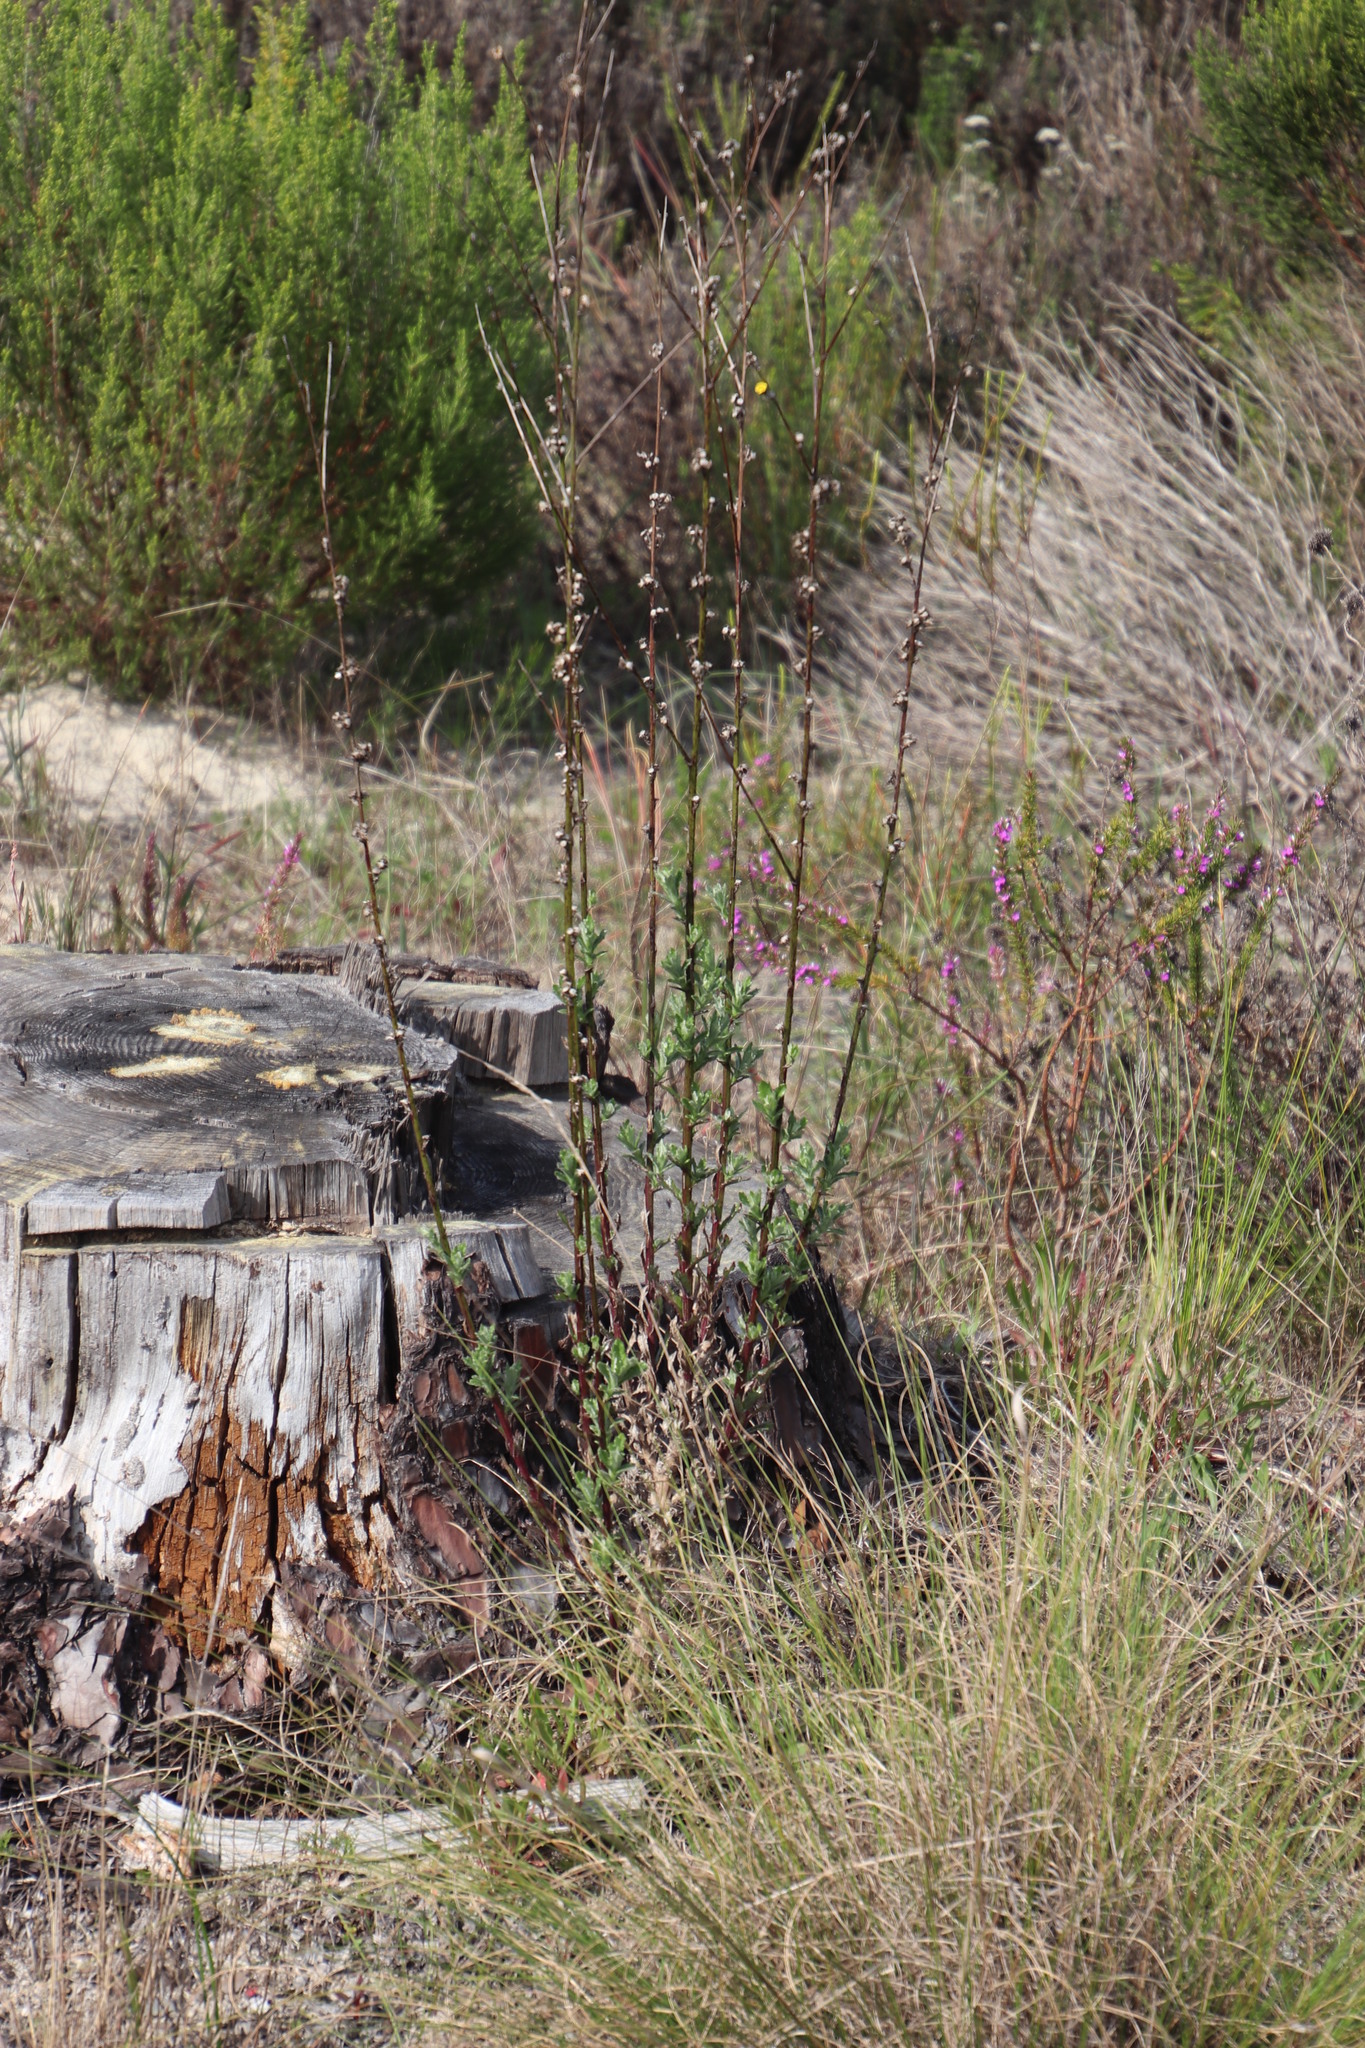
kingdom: Plantae
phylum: Tracheophyta
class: Magnoliopsida
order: Asterales
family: Asteraceae
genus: Senecio
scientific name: Senecio pubigerus
